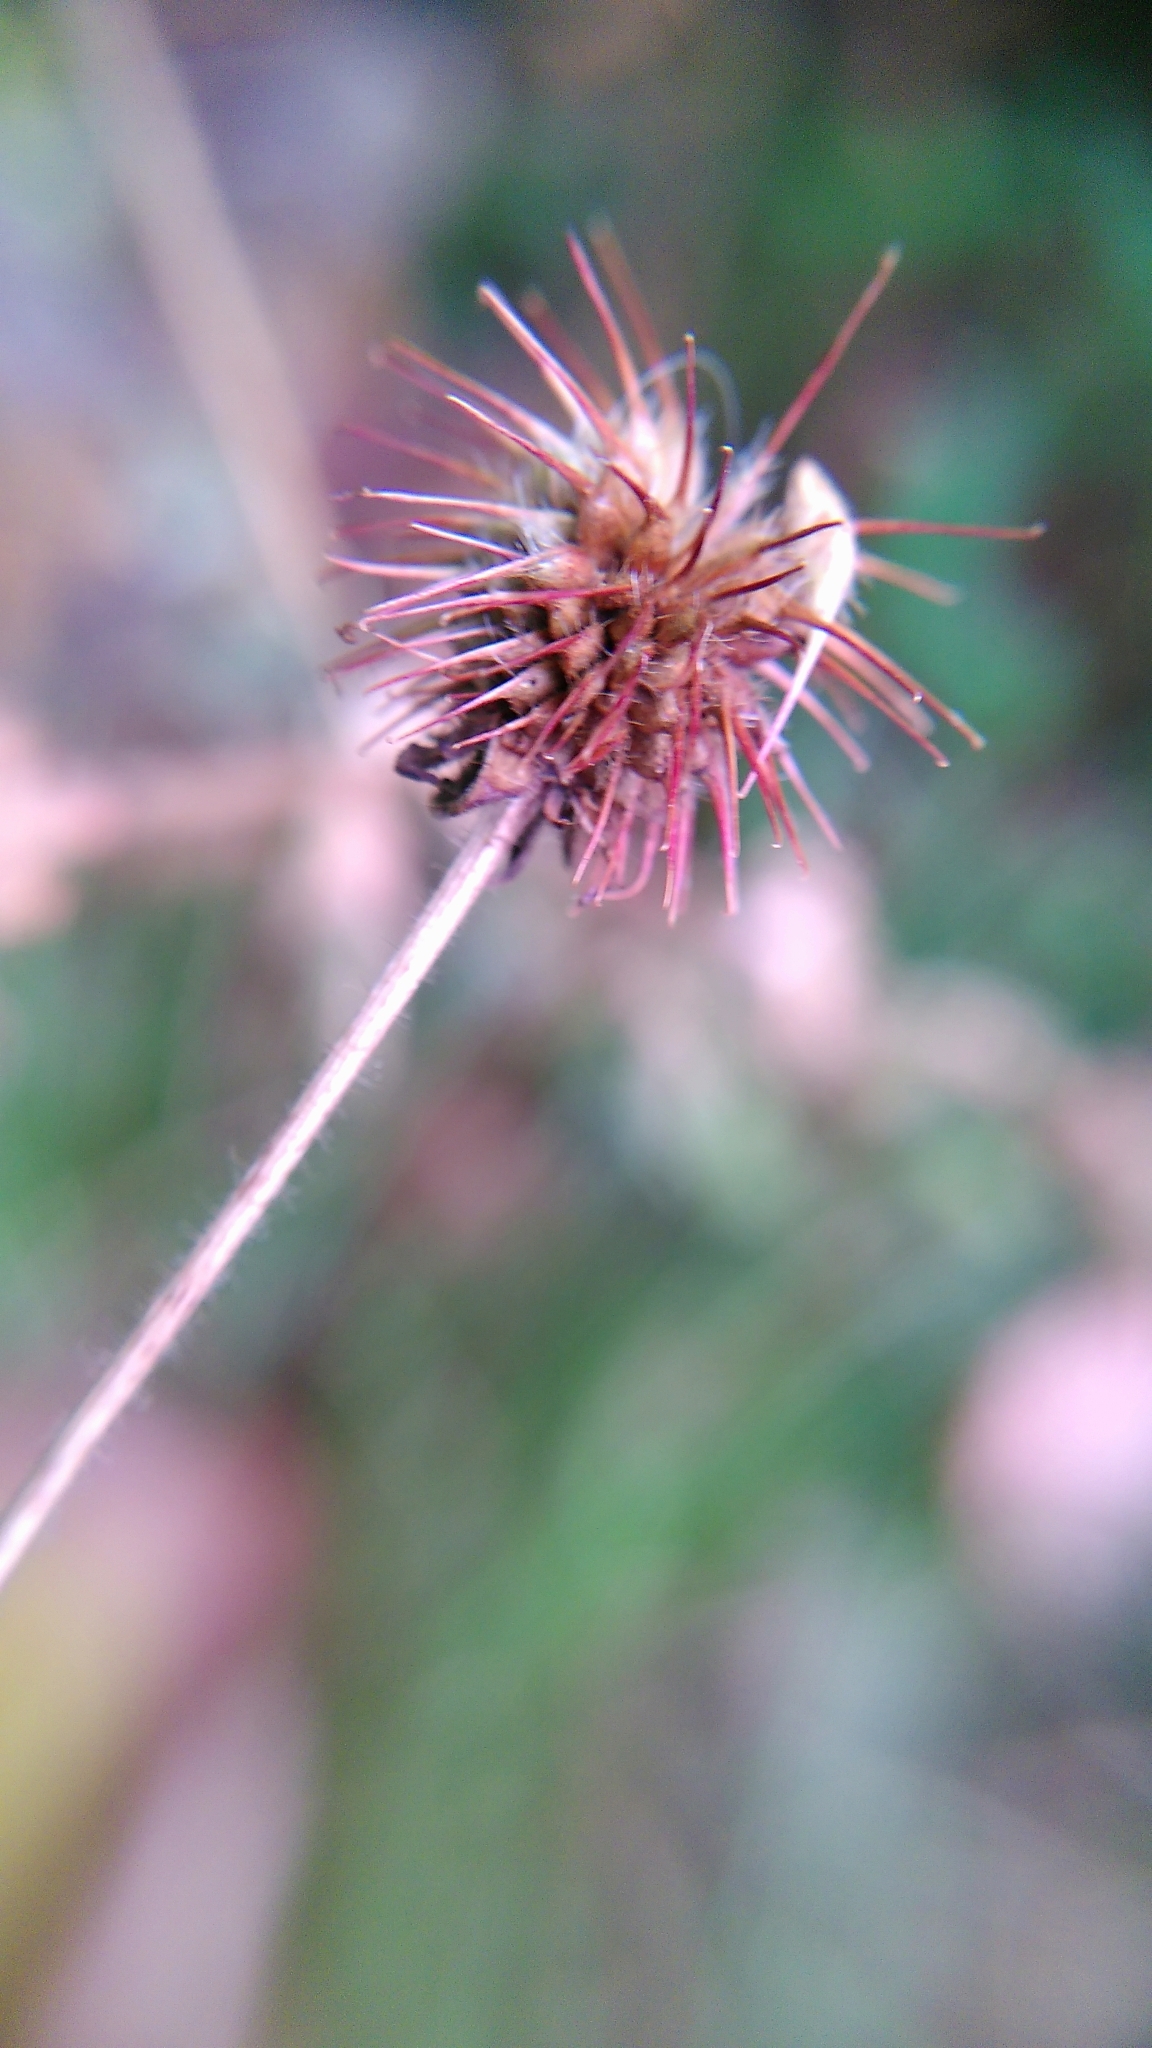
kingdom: Plantae
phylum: Tracheophyta
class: Magnoliopsida
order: Rosales
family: Rosaceae
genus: Geum
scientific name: Geum urbanum
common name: Wood avens
